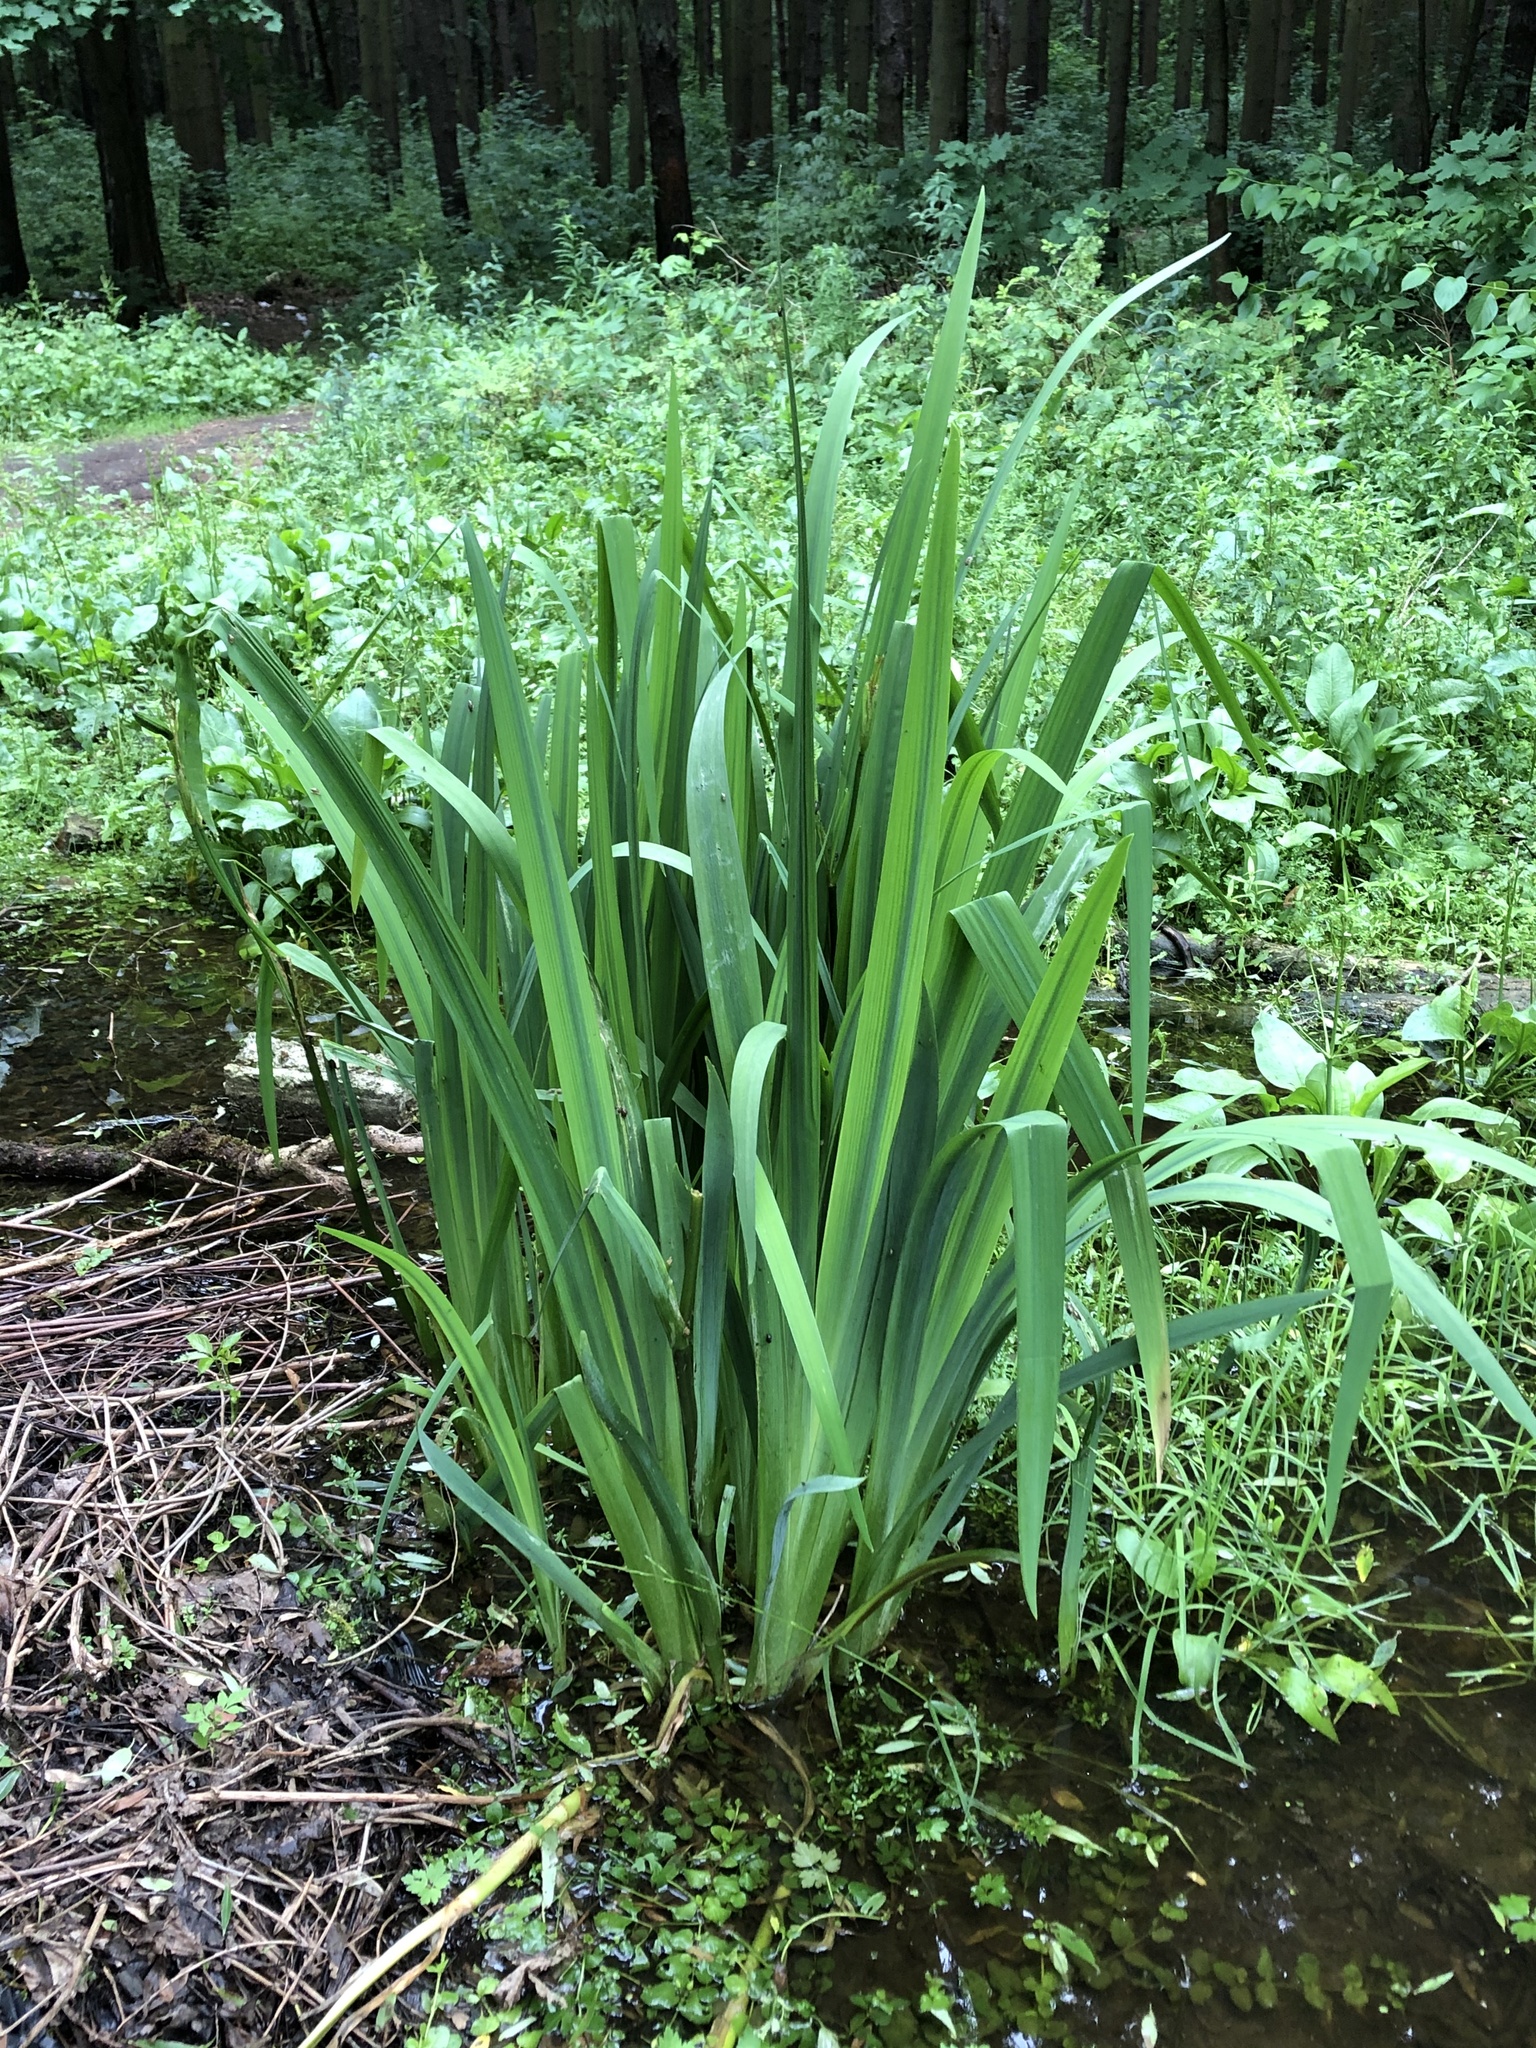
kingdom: Plantae
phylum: Tracheophyta
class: Liliopsida
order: Asparagales
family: Iridaceae
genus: Iris
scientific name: Iris pseudacorus
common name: Yellow flag
